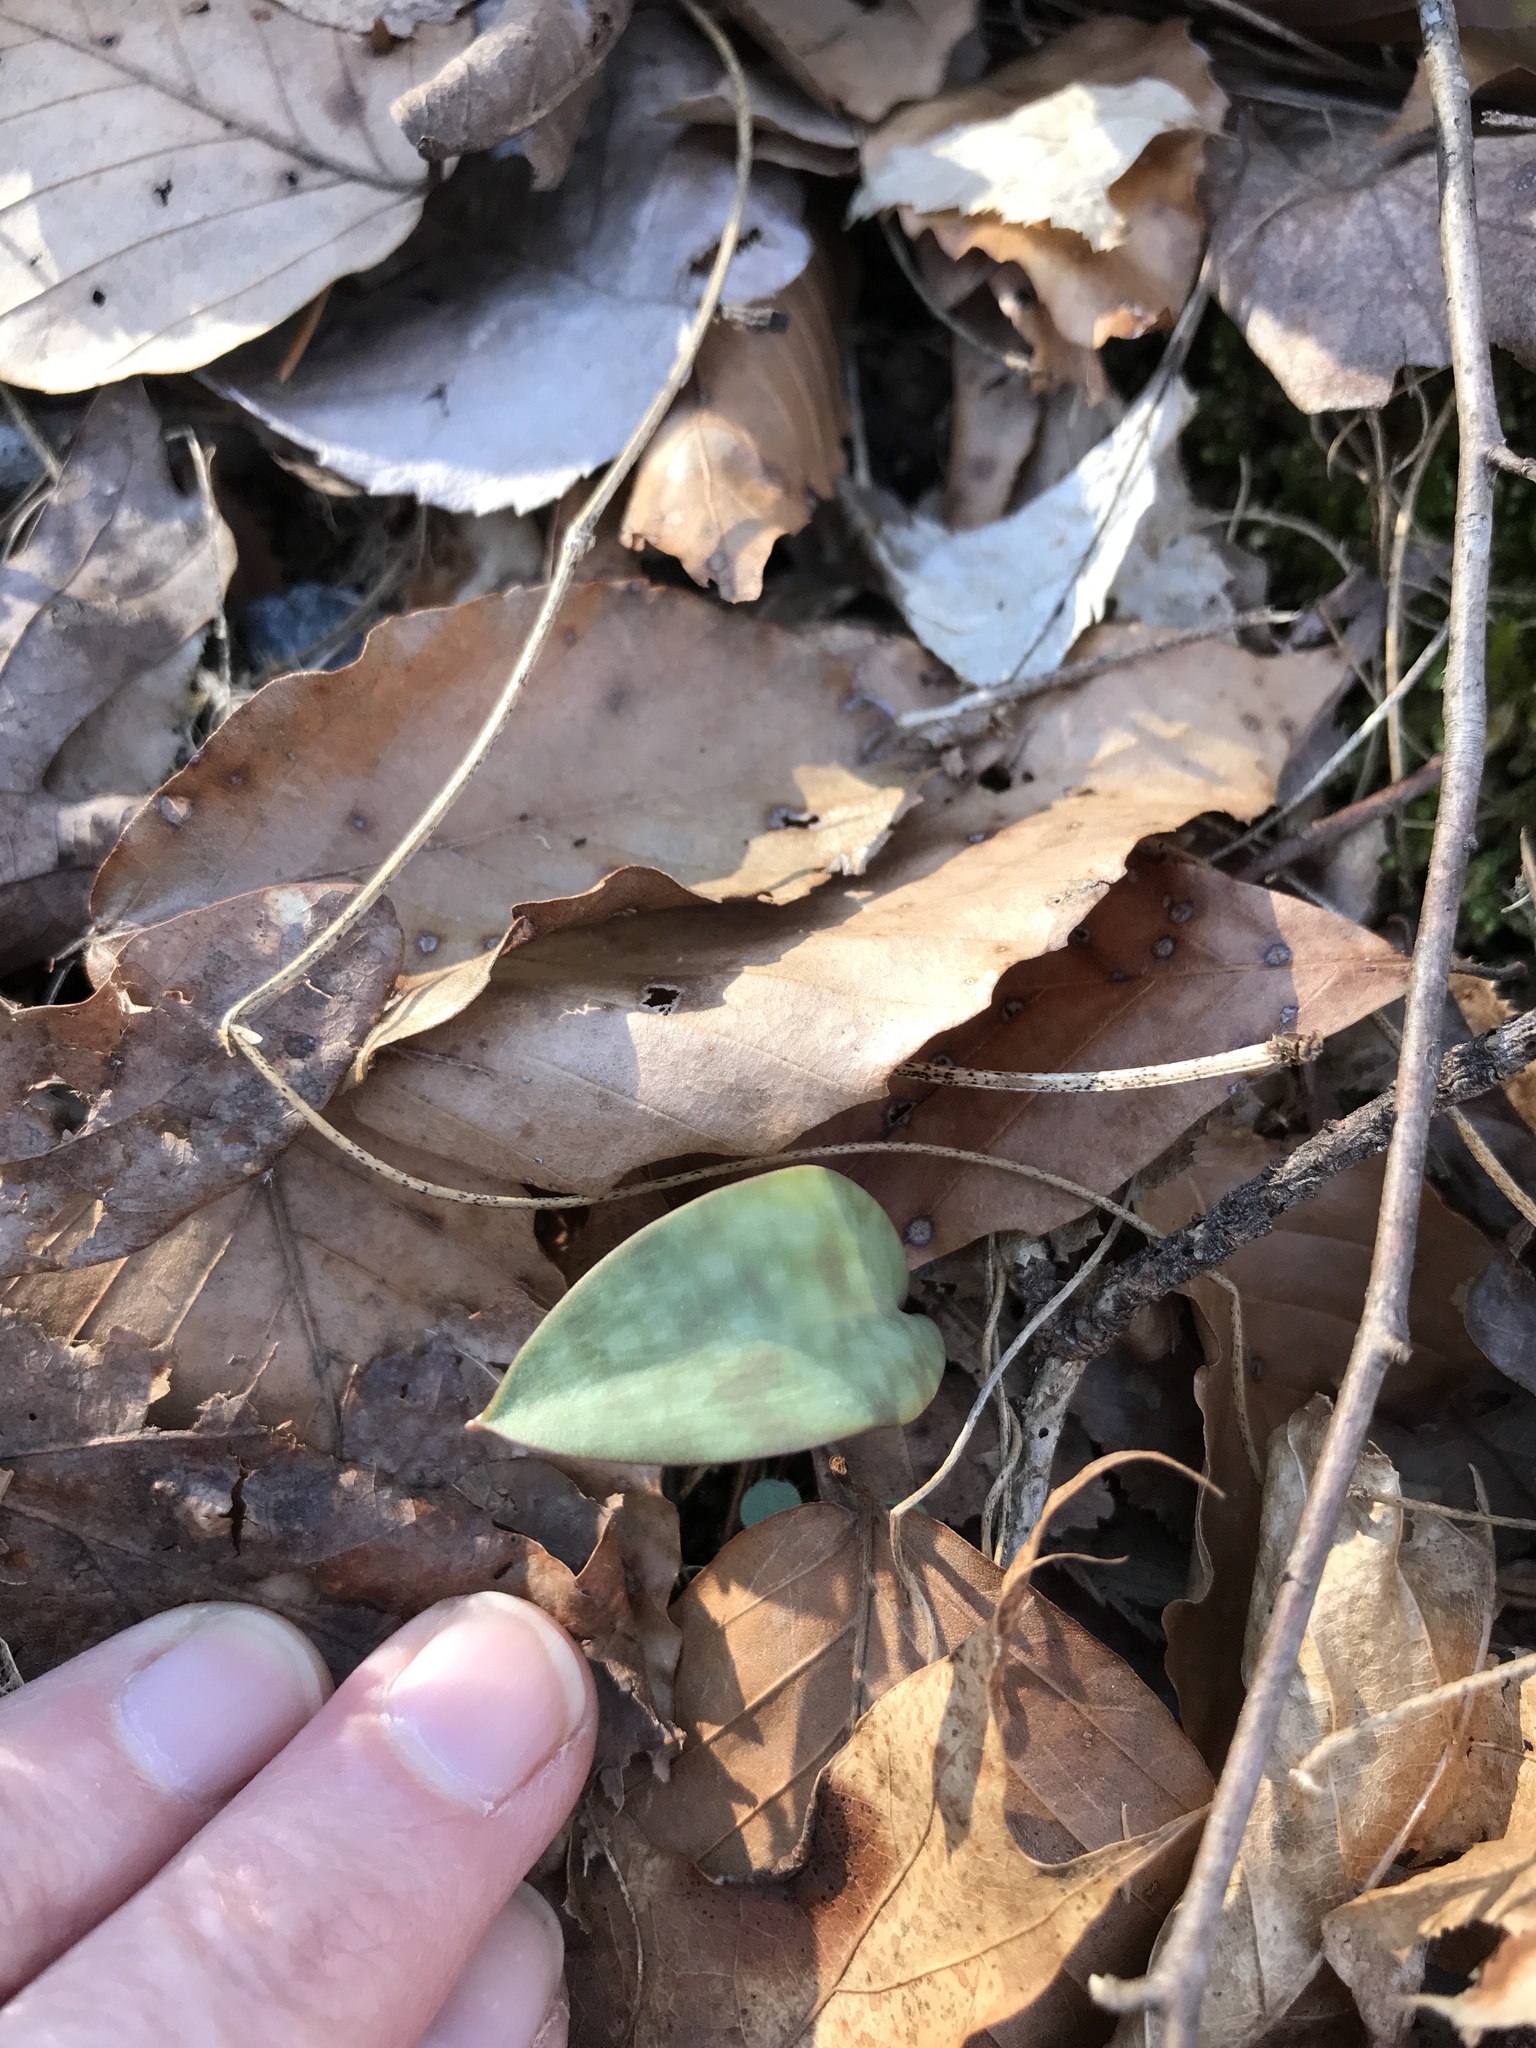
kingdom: Plantae
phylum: Tracheophyta
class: Liliopsida
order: Liliales
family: Liliaceae
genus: Erythronium
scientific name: Erythronium umbilicatum
